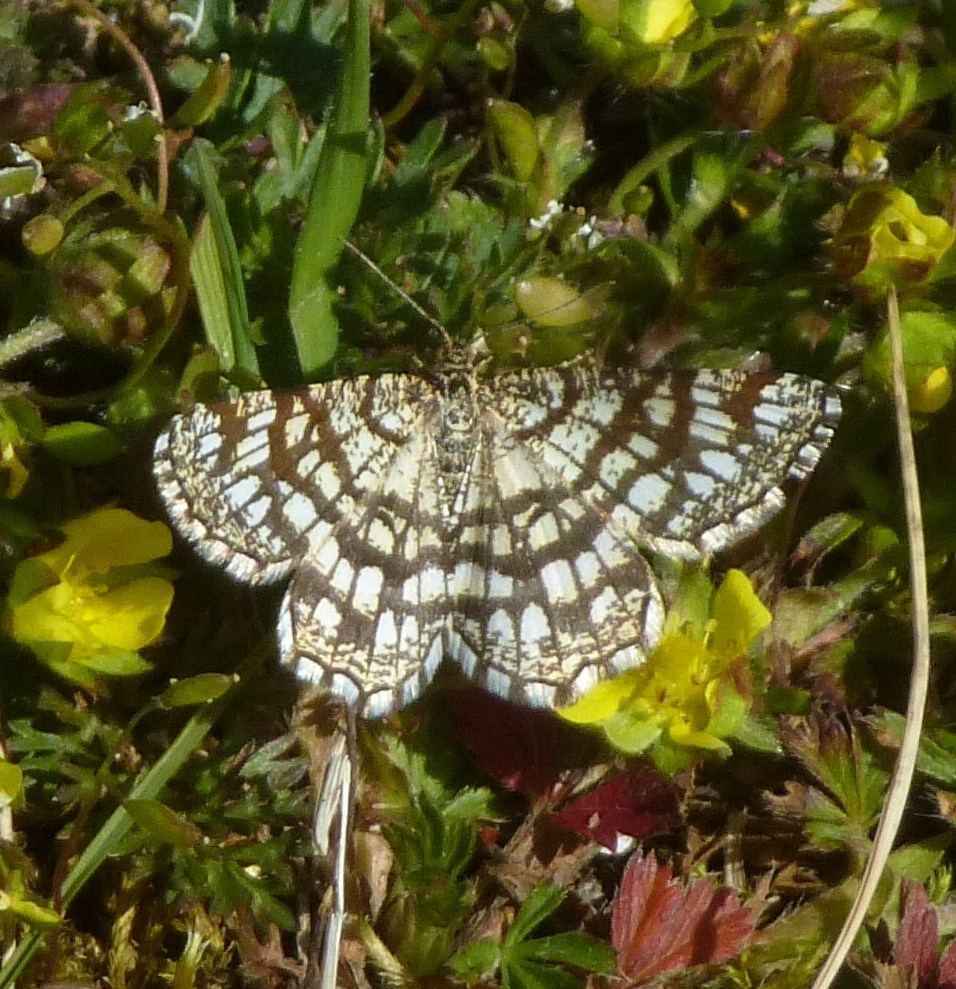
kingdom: Animalia
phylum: Arthropoda
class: Insecta
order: Lepidoptera
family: Geometridae
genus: Chiasmia
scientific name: Chiasmia clathrata
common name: Latticed heath
